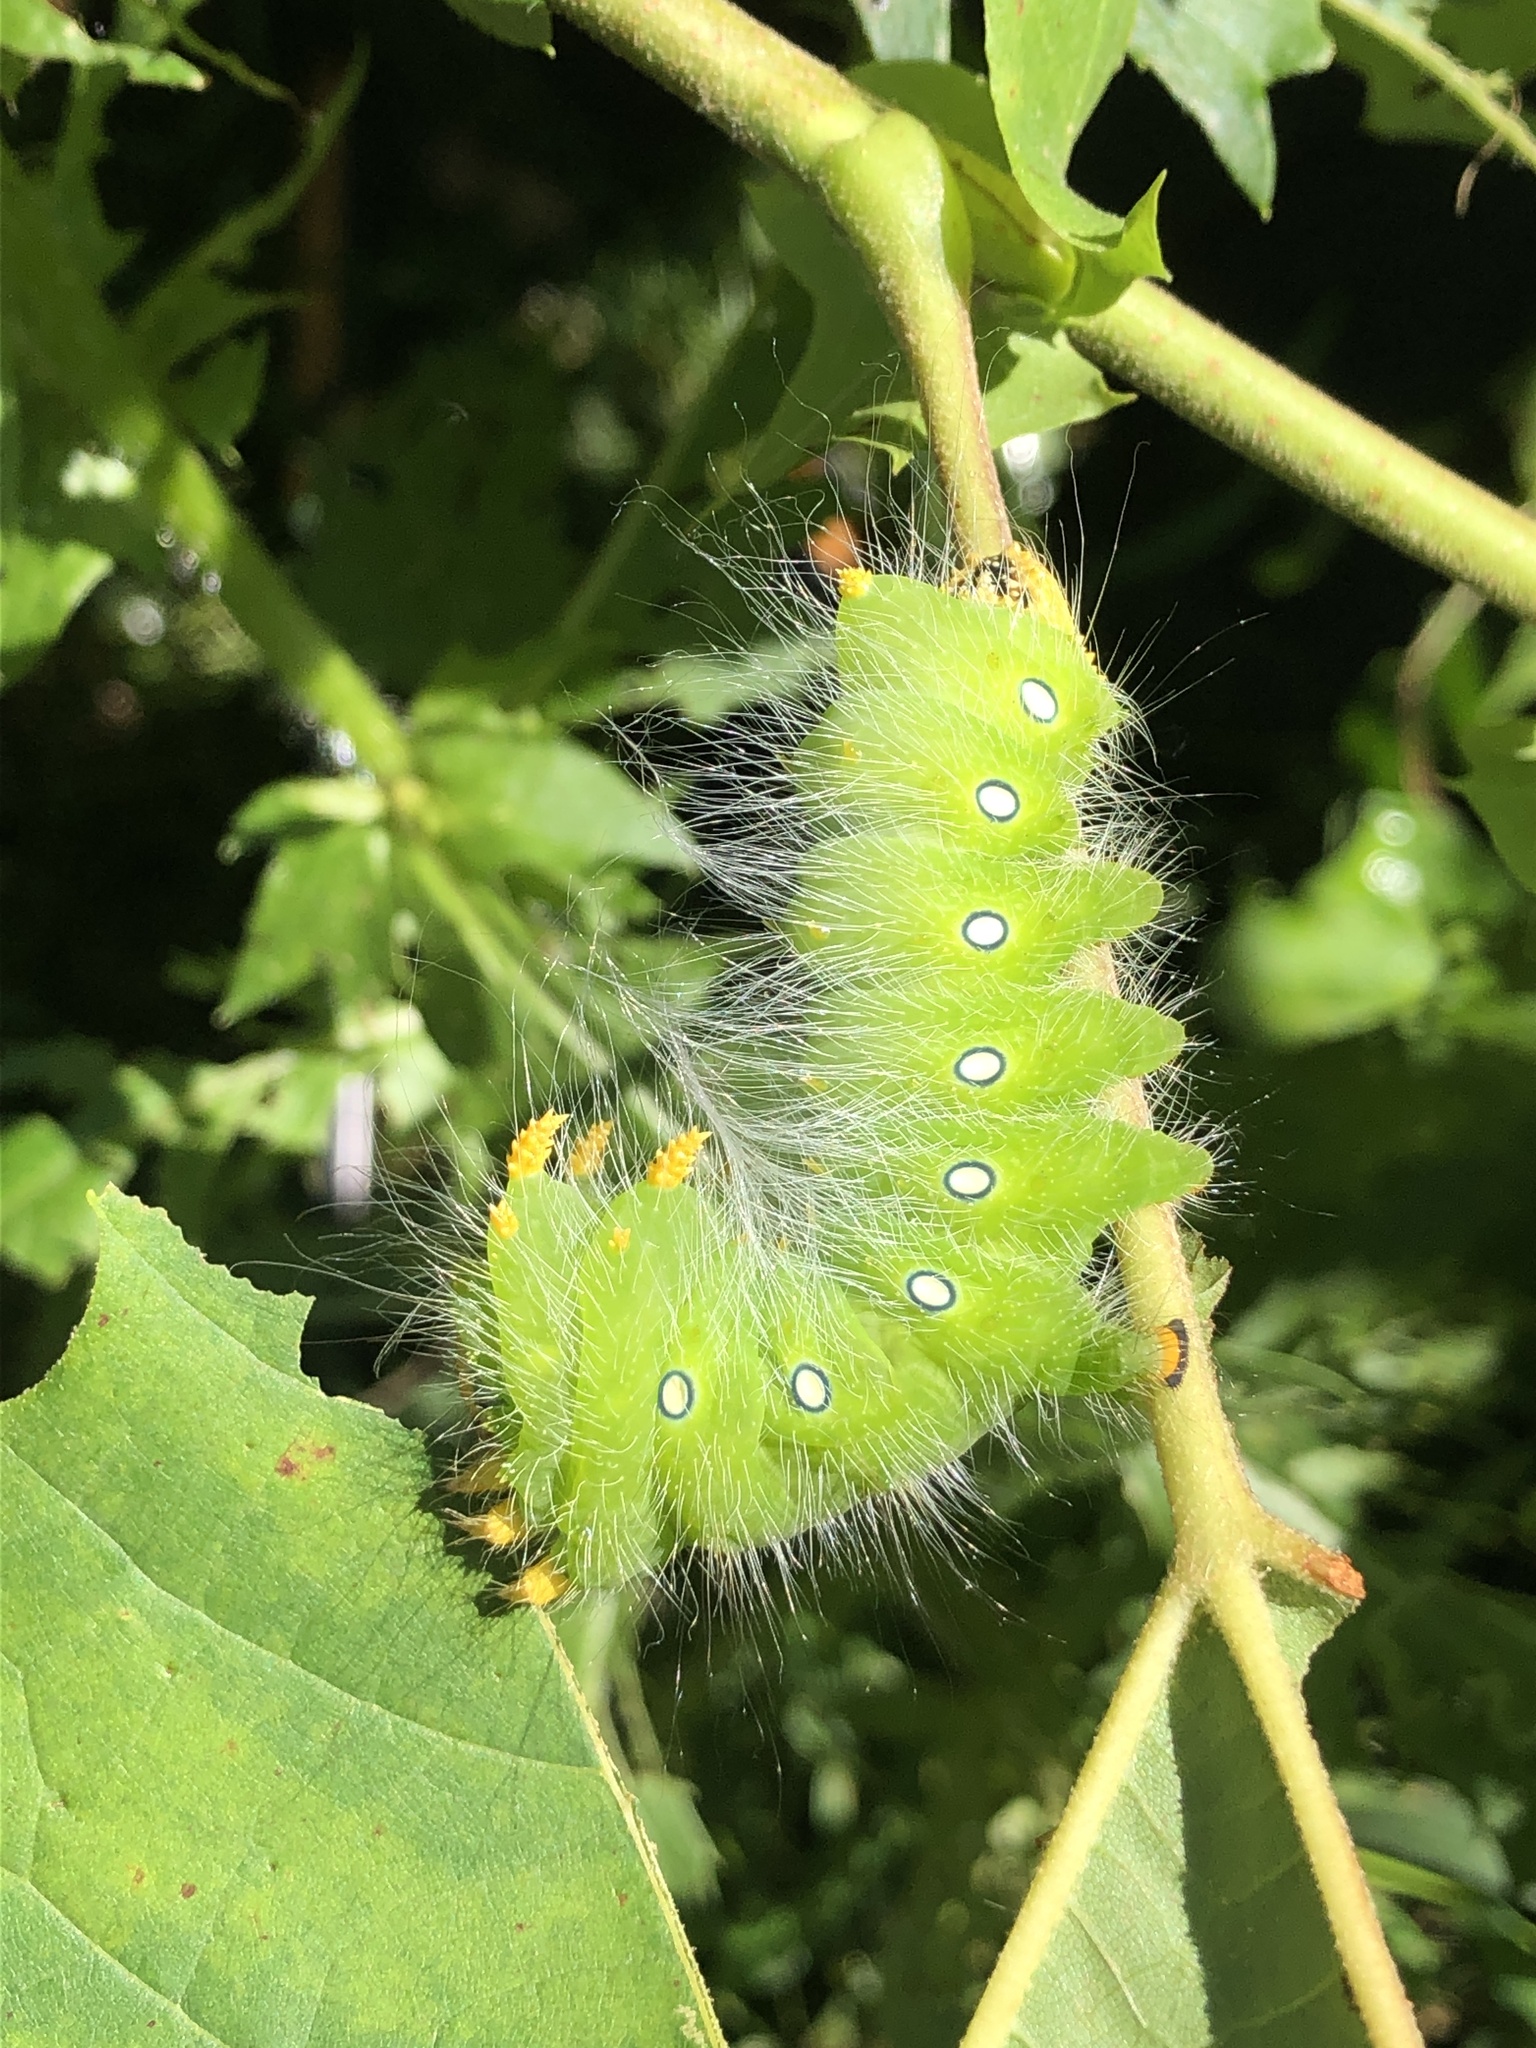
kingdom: Animalia
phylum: Arthropoda
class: Insecta
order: Lepidoptera
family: Saturniidae
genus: Eacles
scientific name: Eacles imperialis
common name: Imperial moth
